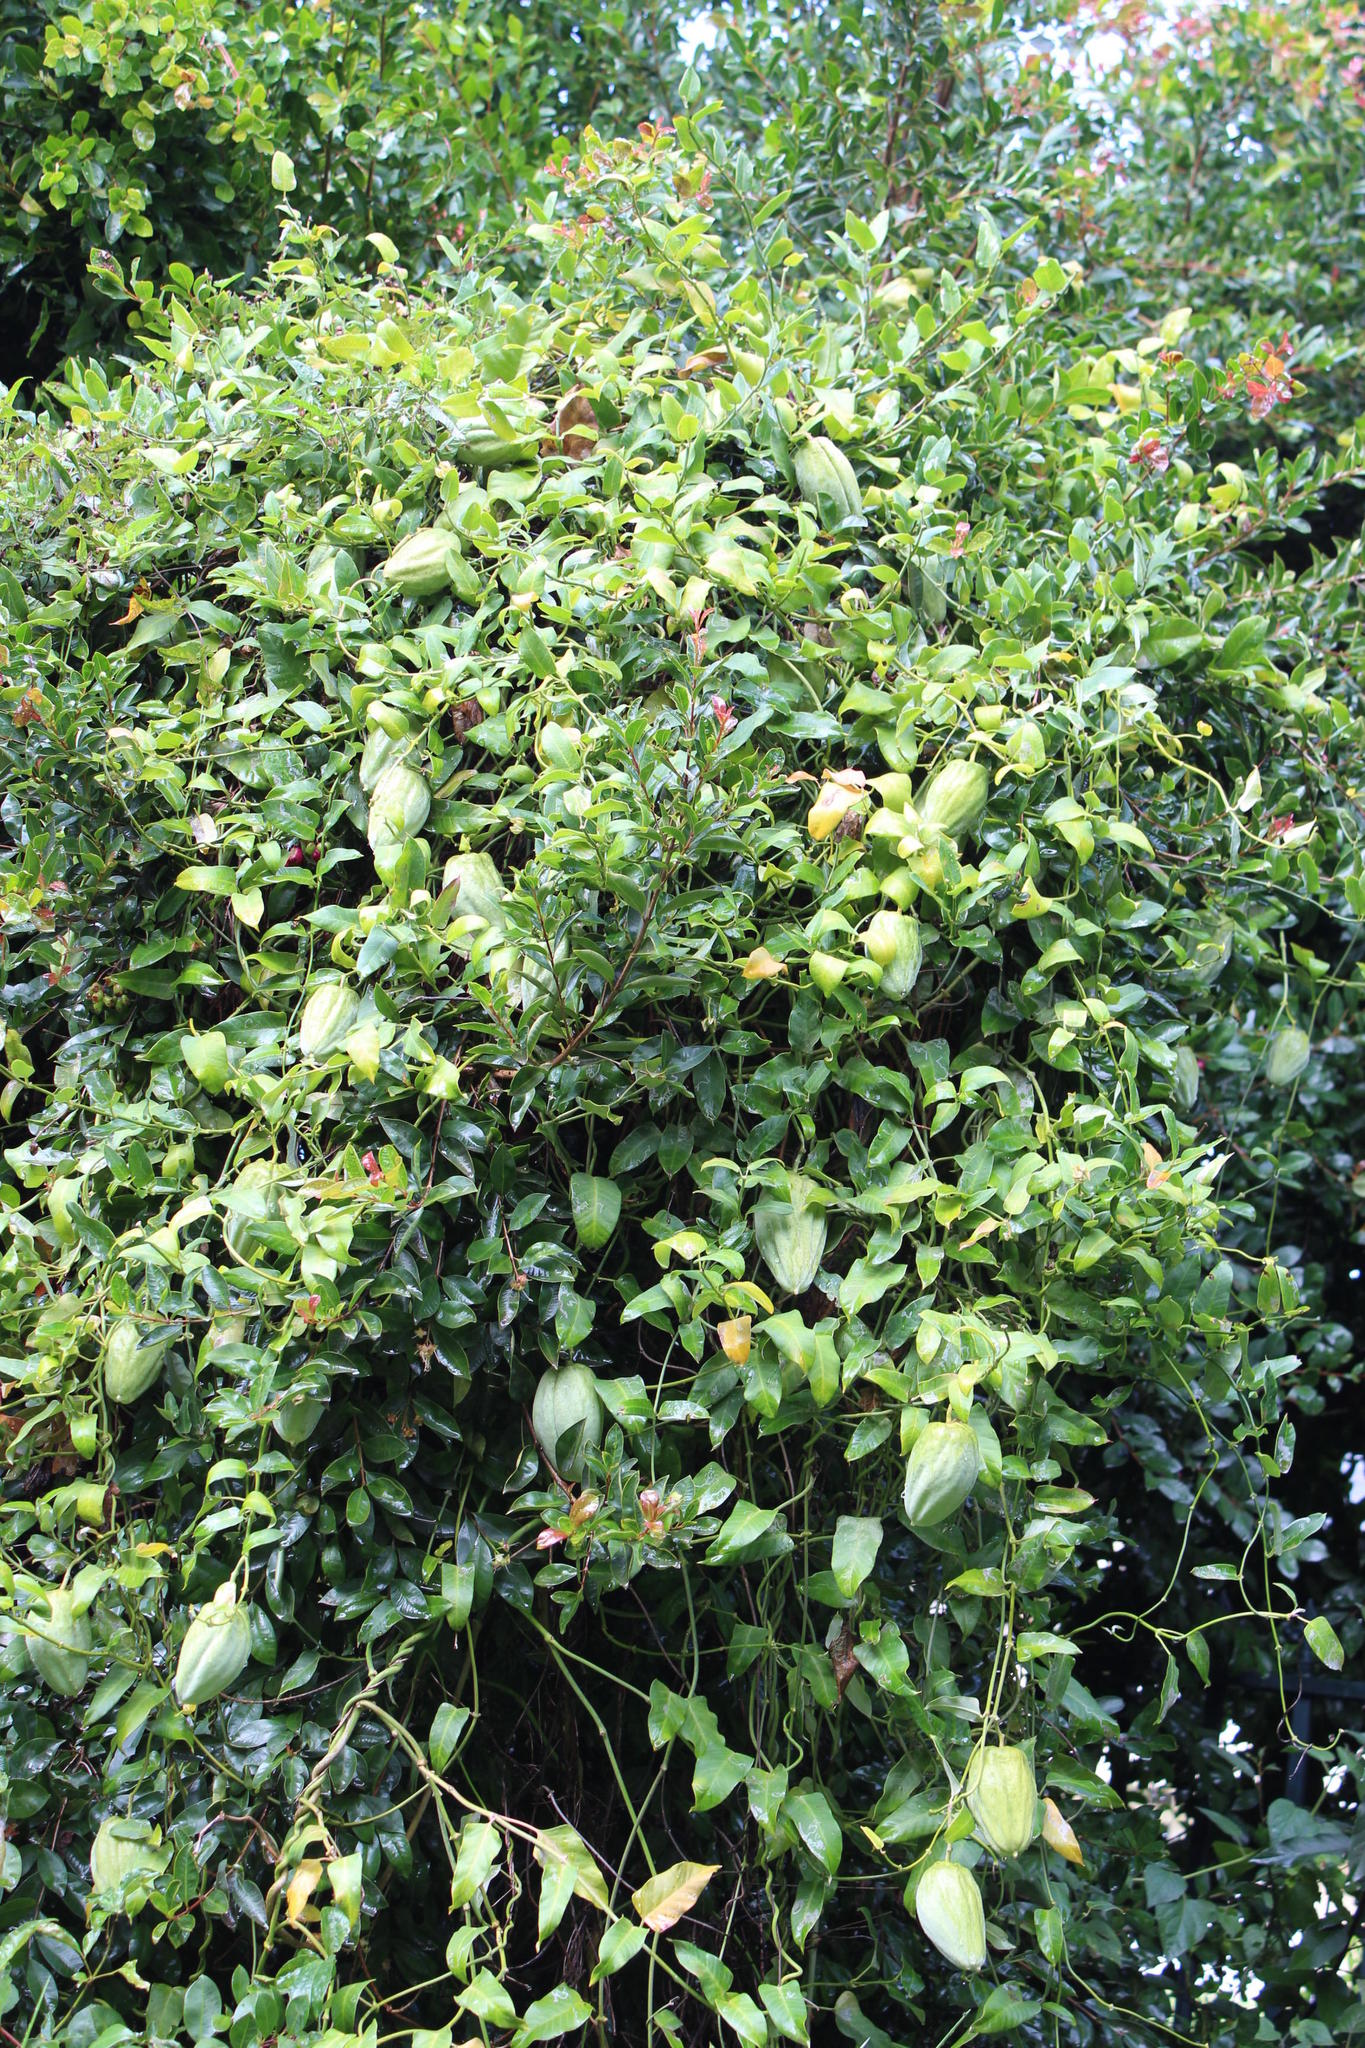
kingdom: Plantae
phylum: Tracheophyta
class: Magnoliopsida
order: Gentianales
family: Apocynaceae
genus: Araujia
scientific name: Araujia sericifera
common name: White bladderflower
